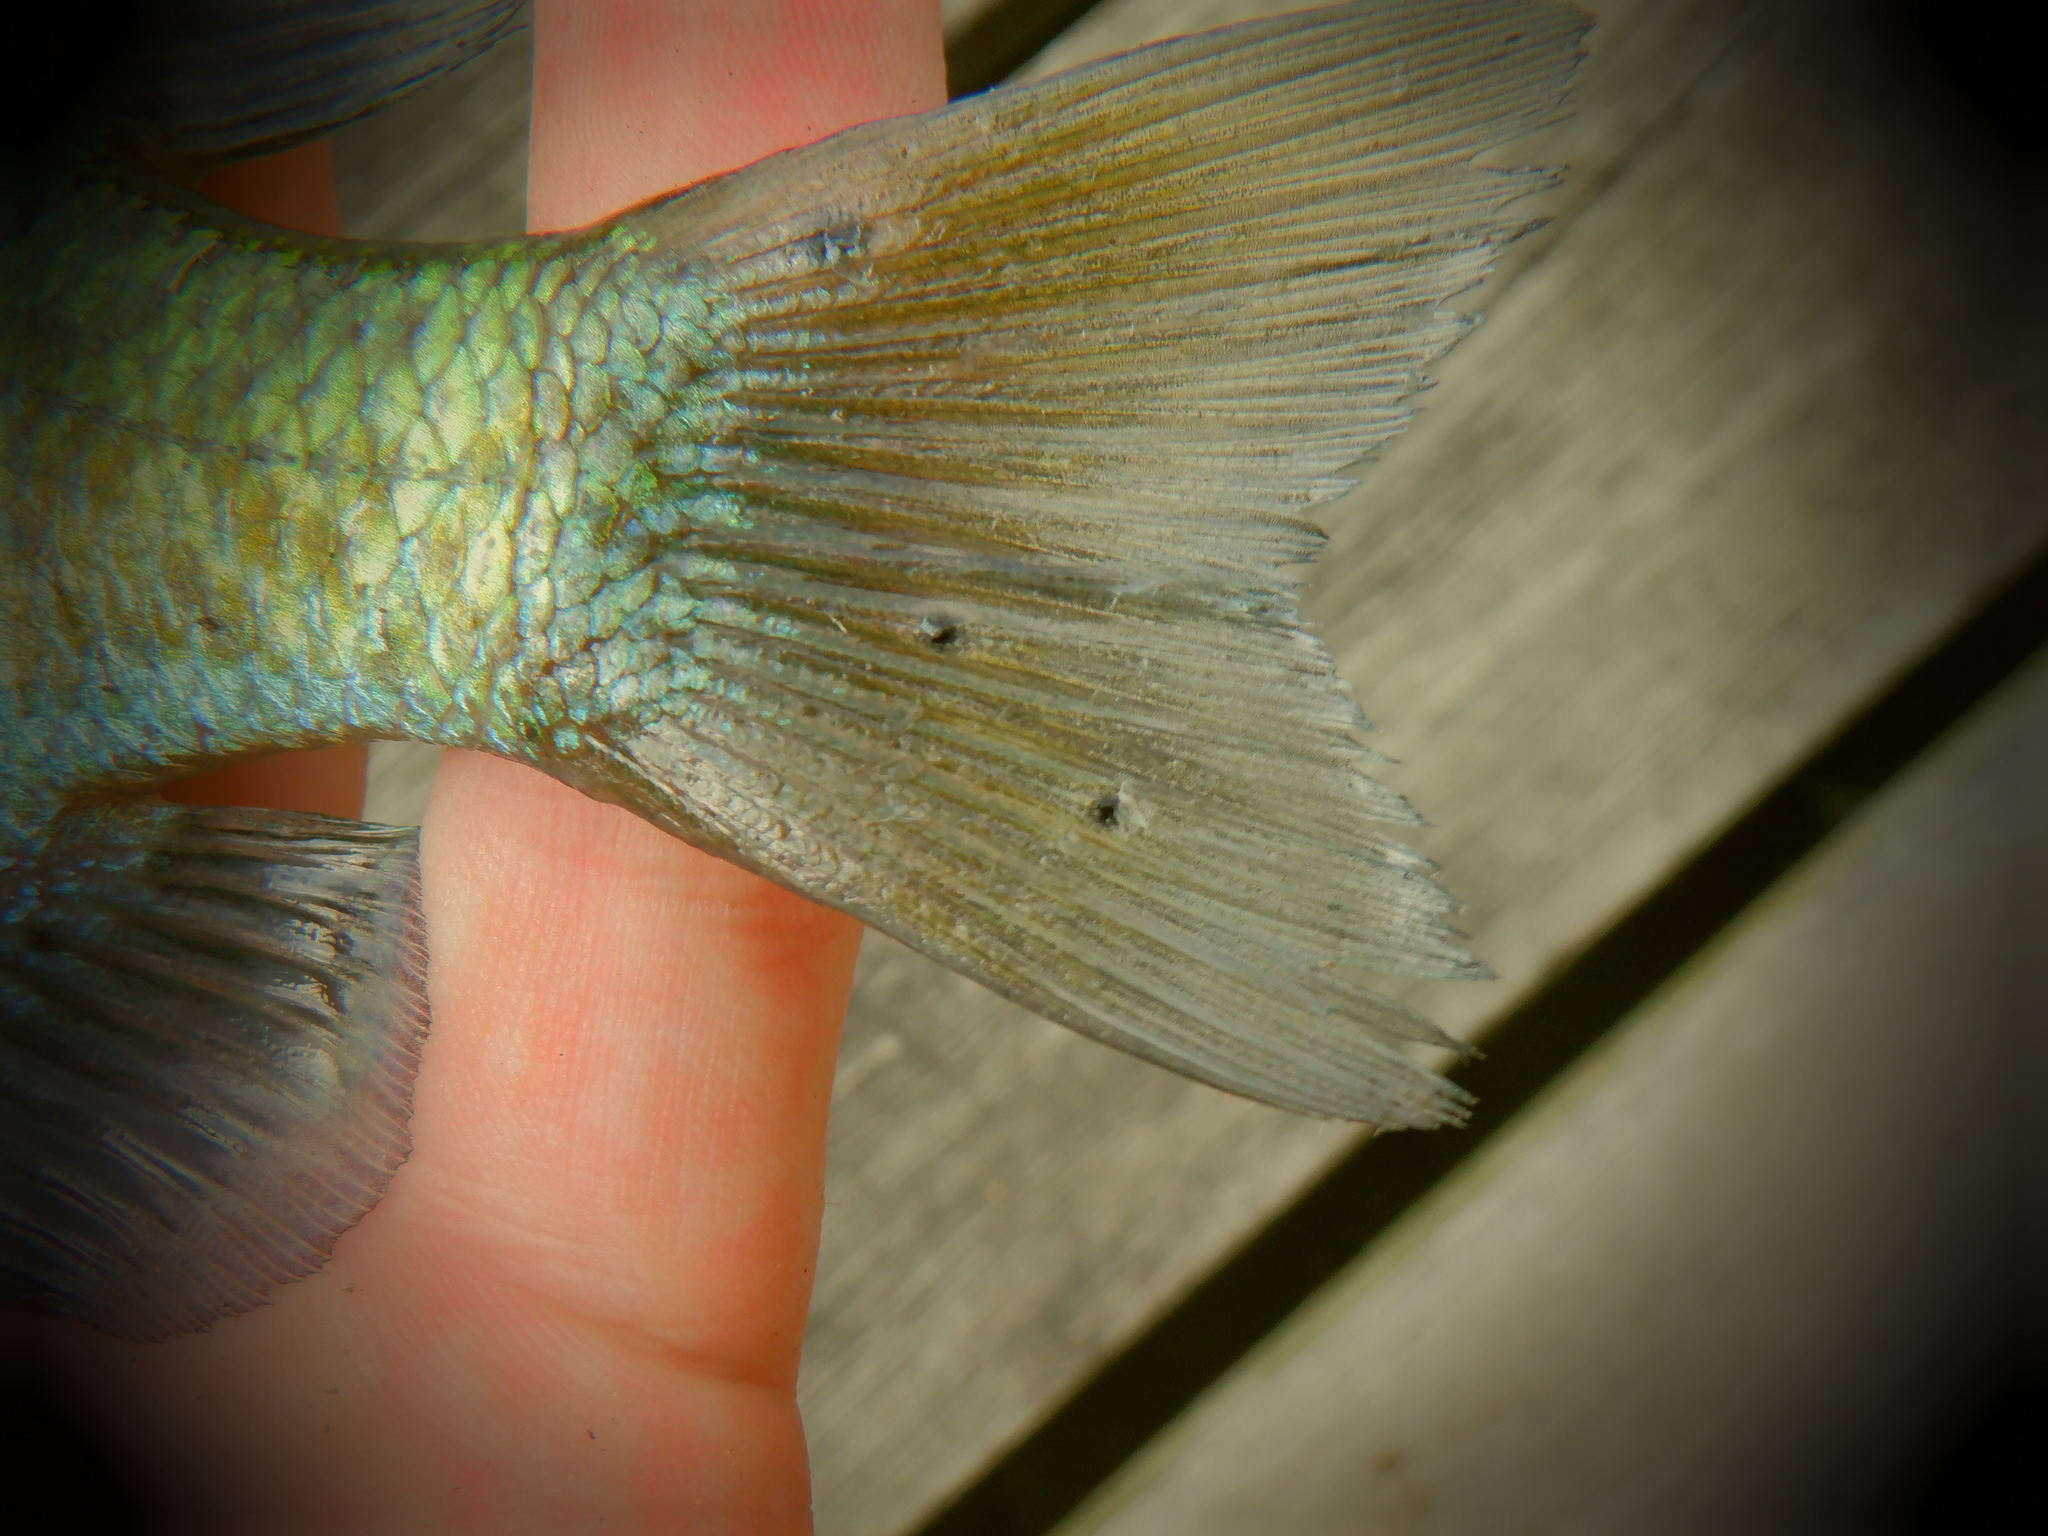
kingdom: Animalia
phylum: Platyhelminthes
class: Trematoda
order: Diplostomida
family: Diplostomidae
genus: Neascus
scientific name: Neascus
